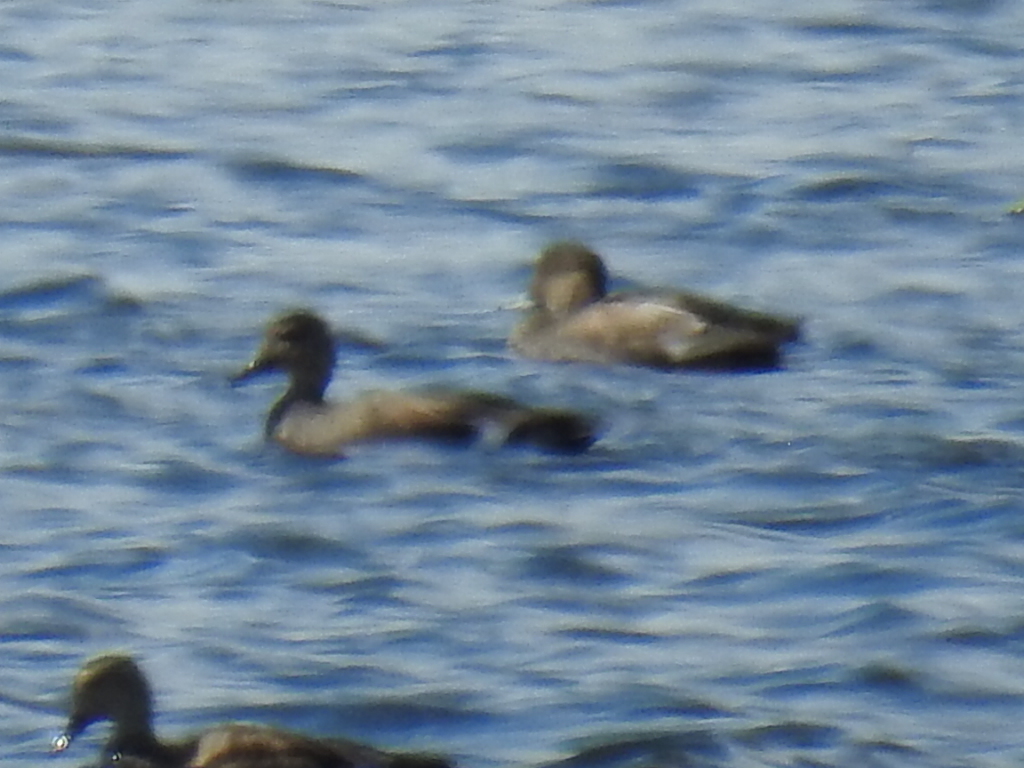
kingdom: Animalia
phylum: Chordata
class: Aves
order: Anseriformes
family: Anatidae
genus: Mareca
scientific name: Mareca strepera
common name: Gadwall
